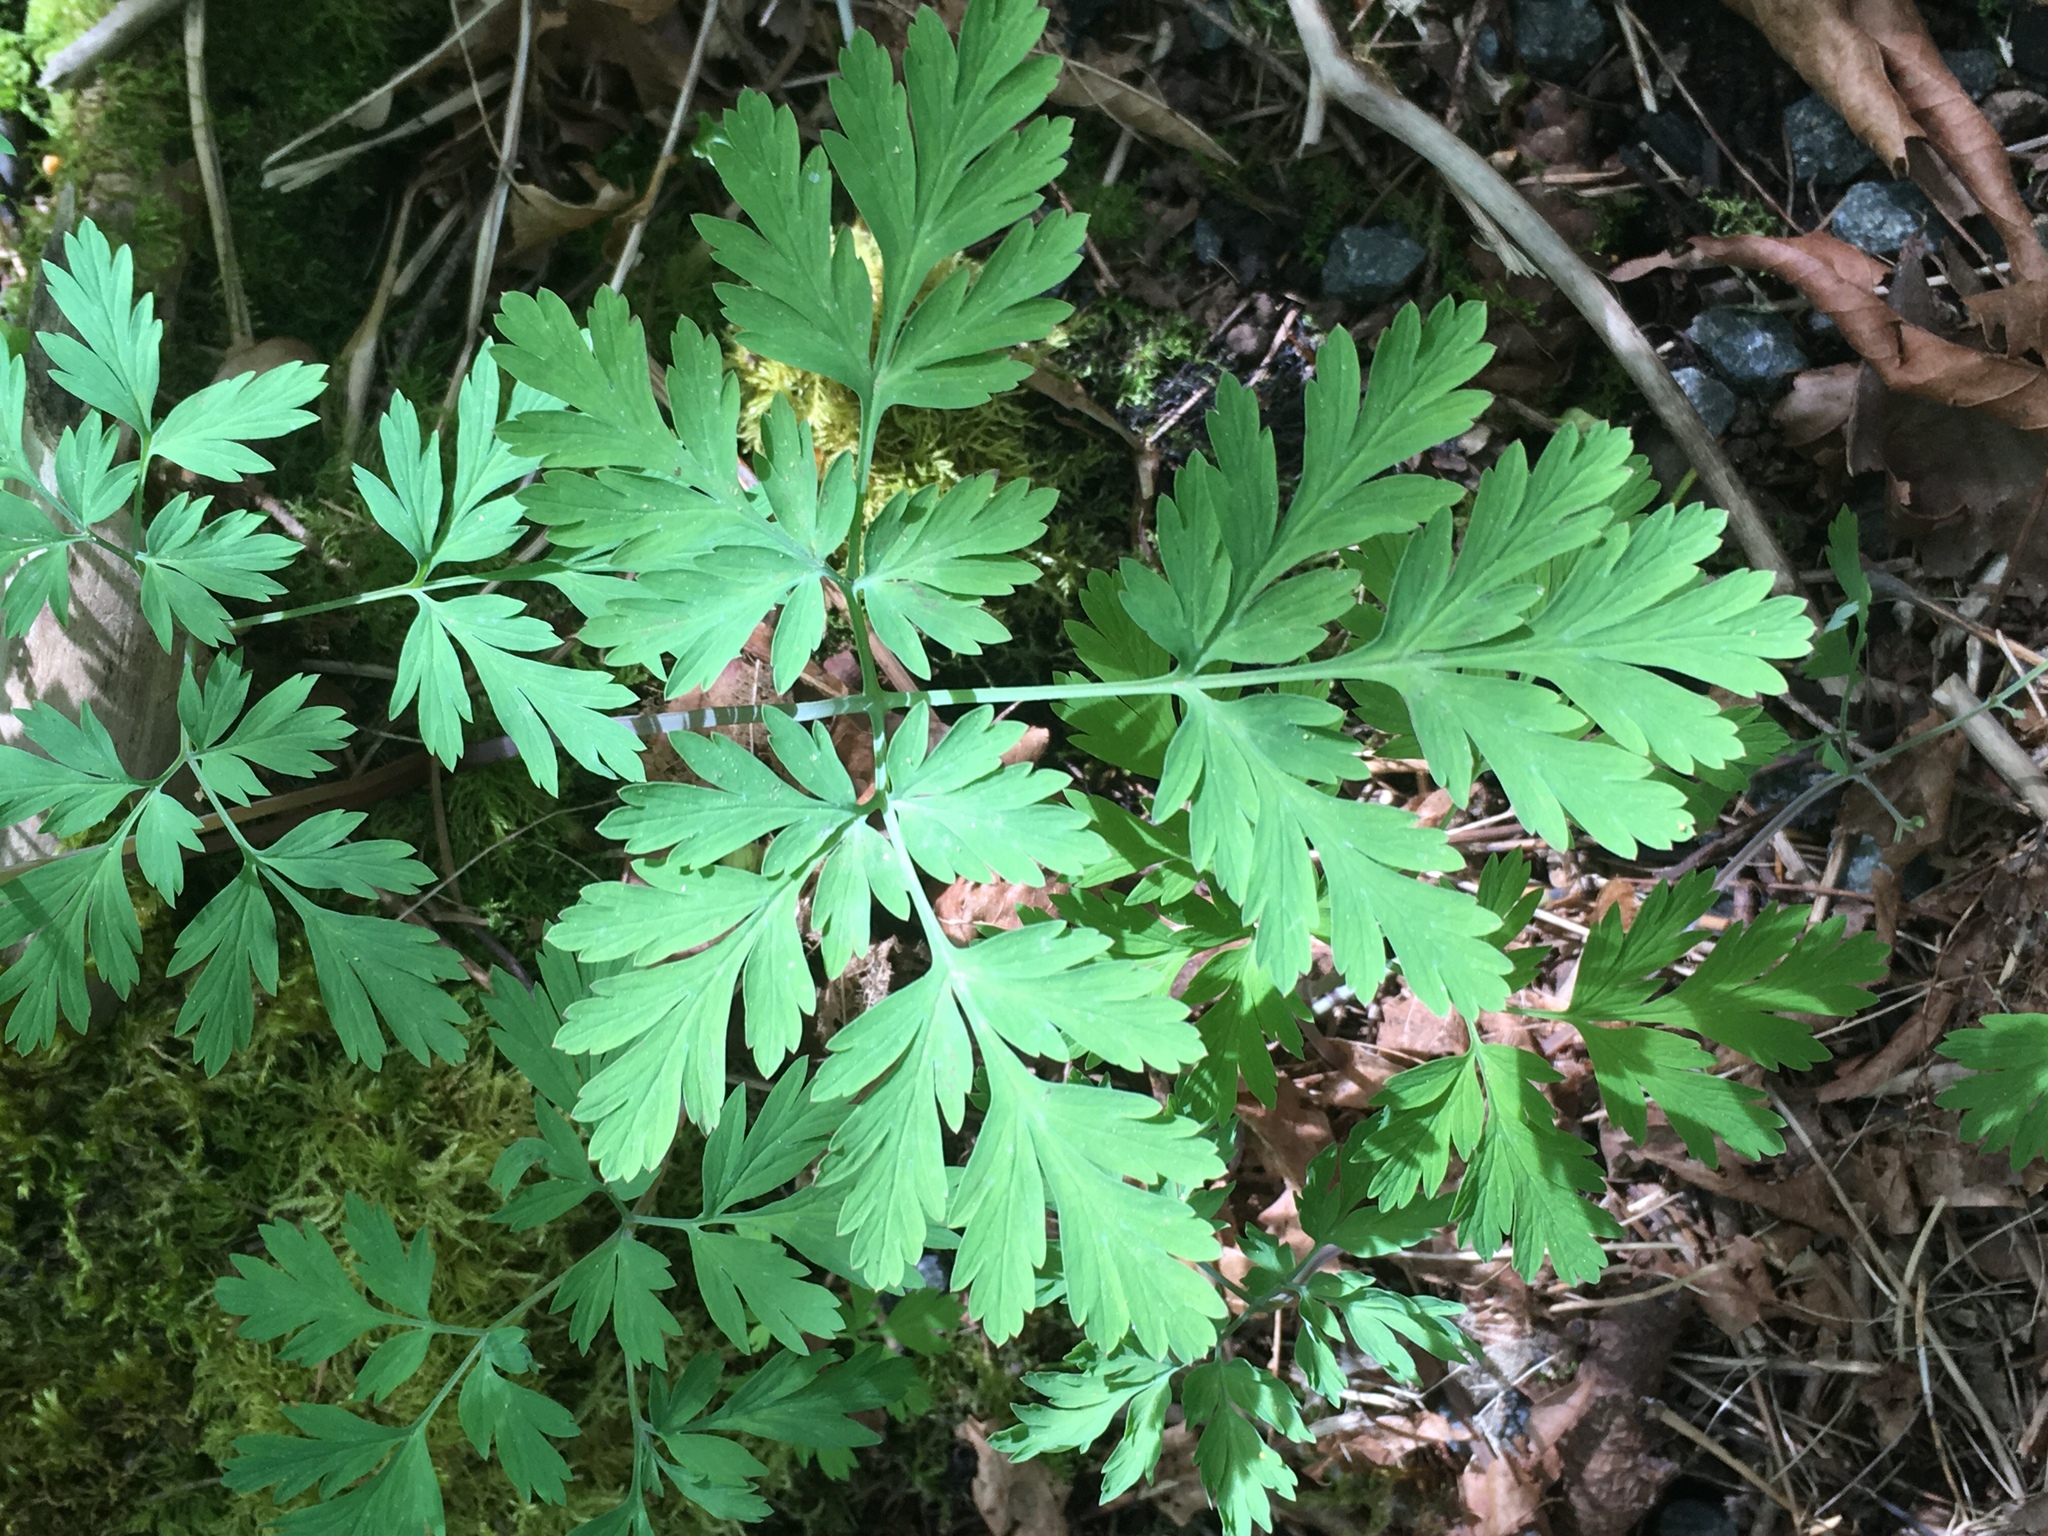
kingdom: Plantae
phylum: Tracheophyta
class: Magnoliopsida
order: Ranunculales
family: Papaveraceae
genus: Dicentra
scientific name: Dicentra formosa
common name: Bleeding-heart
